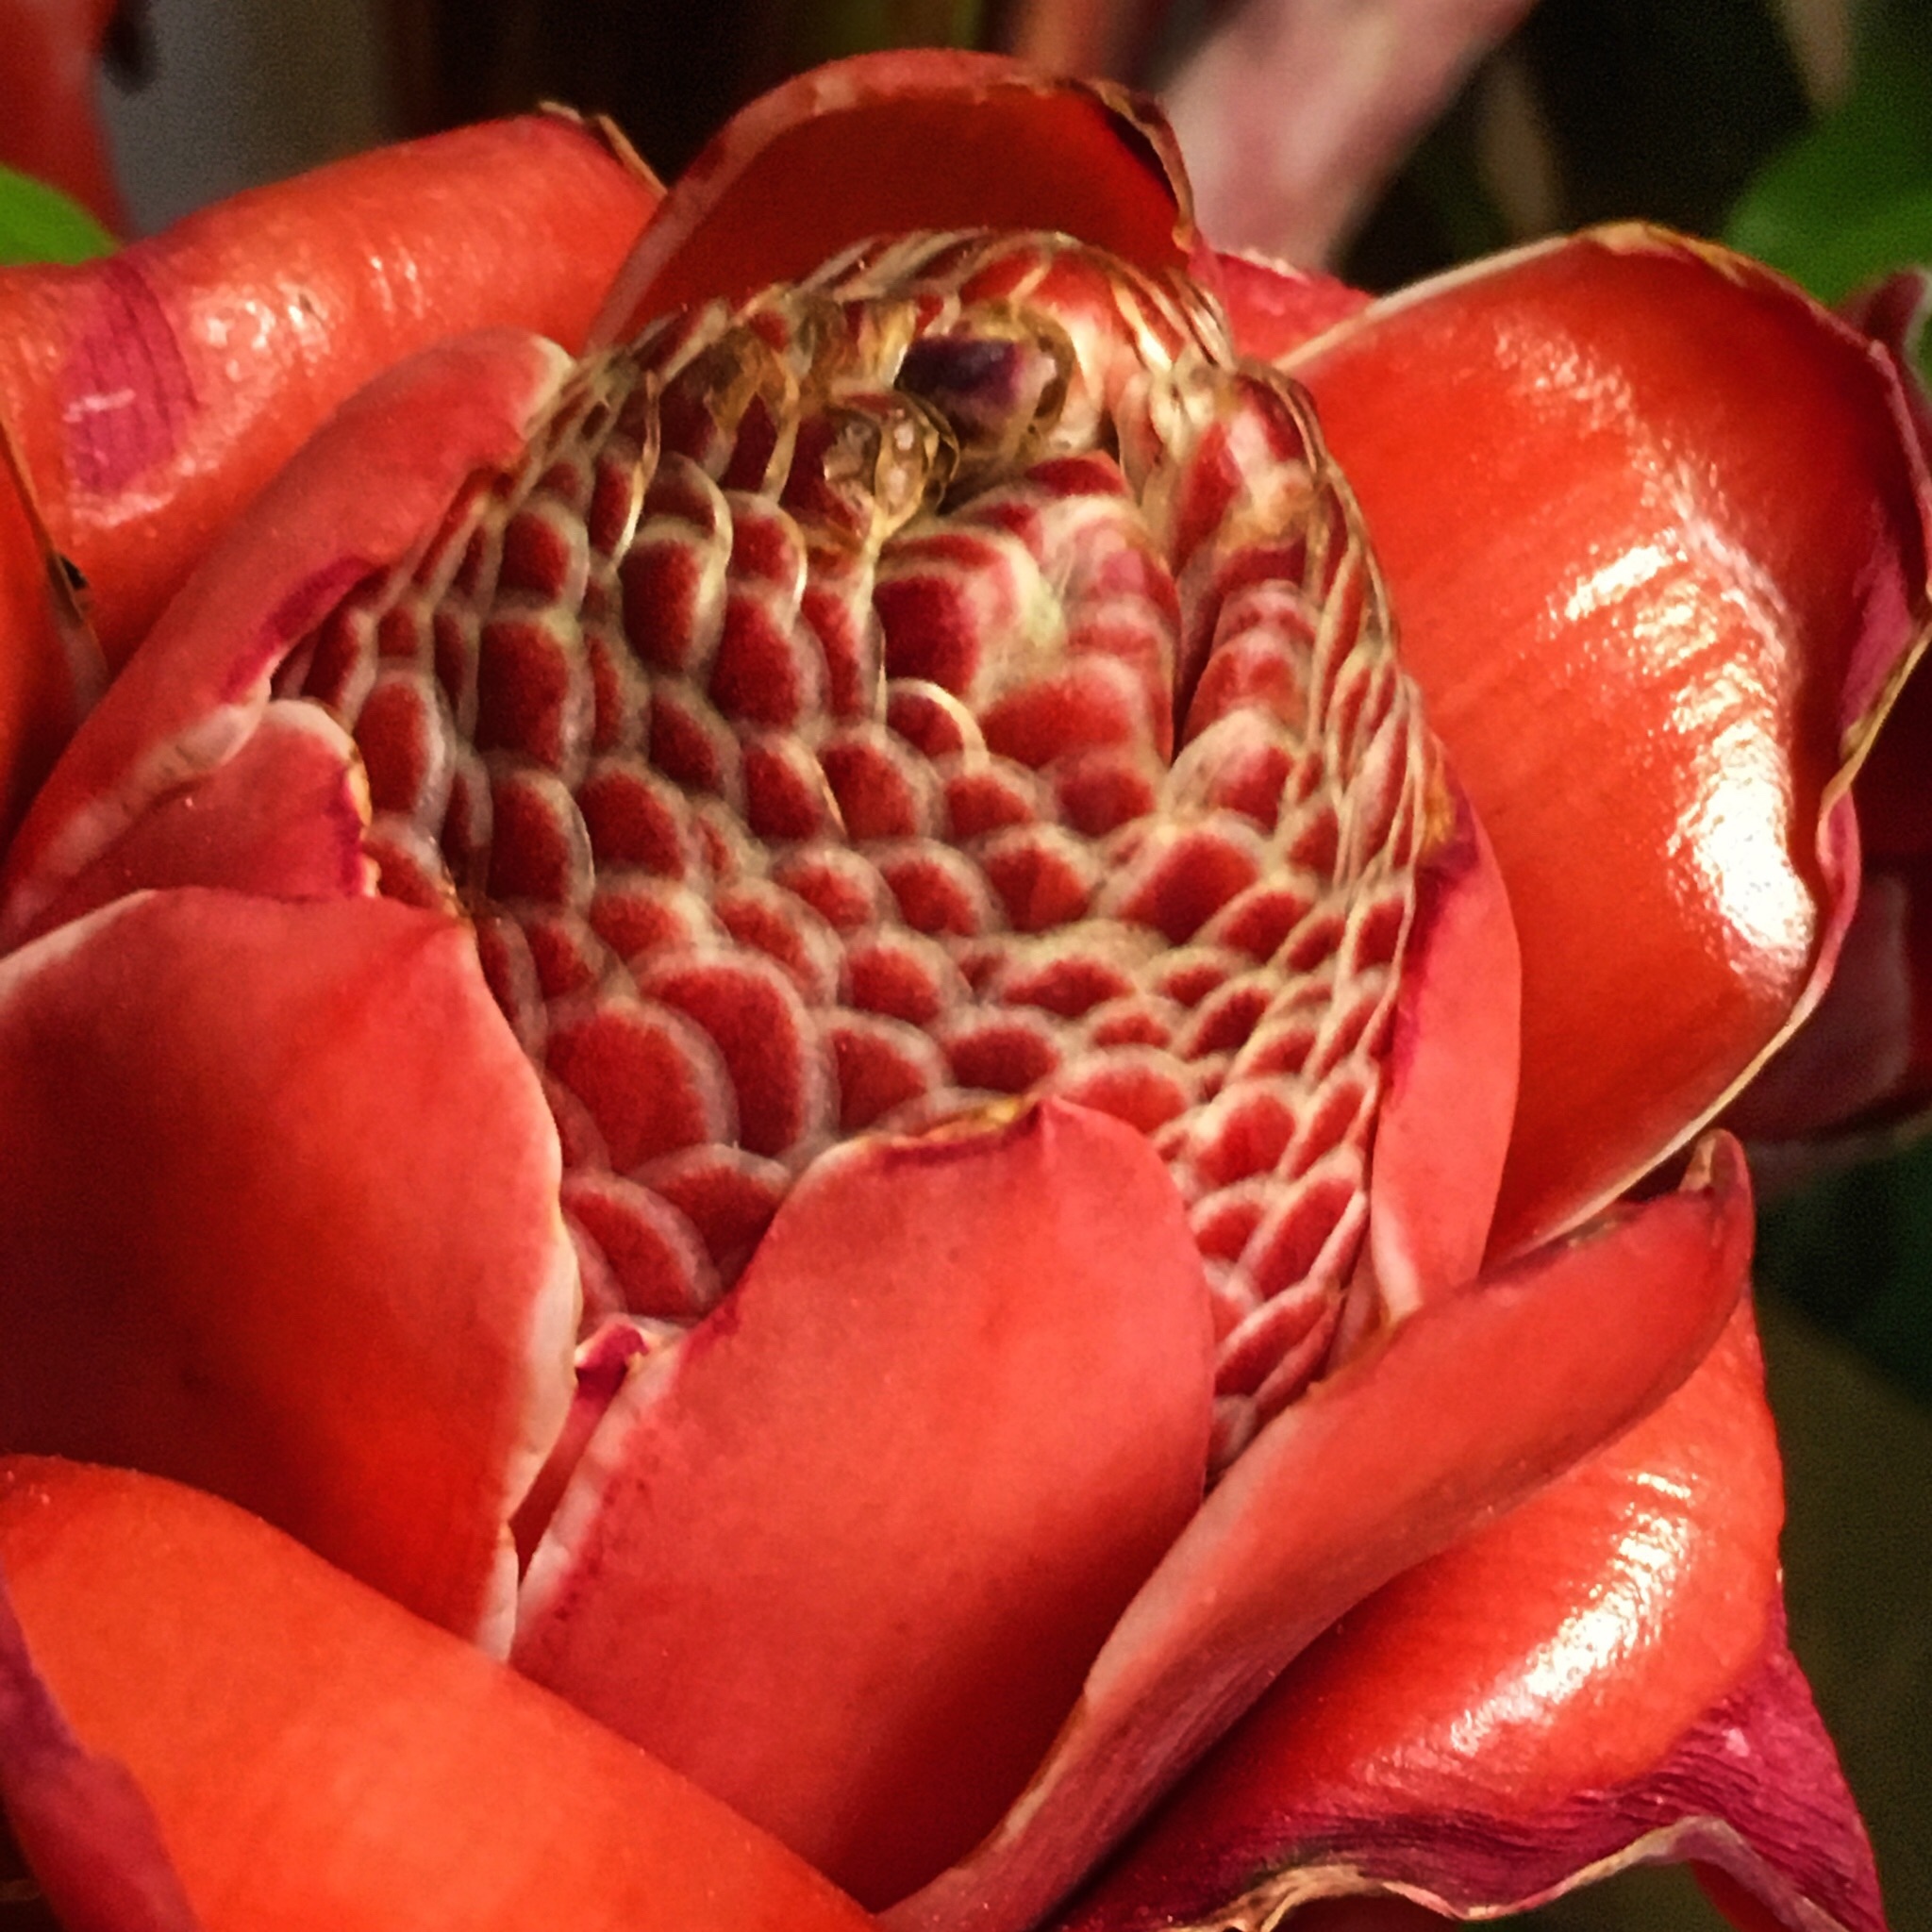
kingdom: Plantae
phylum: Tracheophyta
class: Liliopsida
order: Zingiberales
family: Zingiberaceae
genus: Etlingera
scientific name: Etlingera elatior
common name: Philippine waxflower
